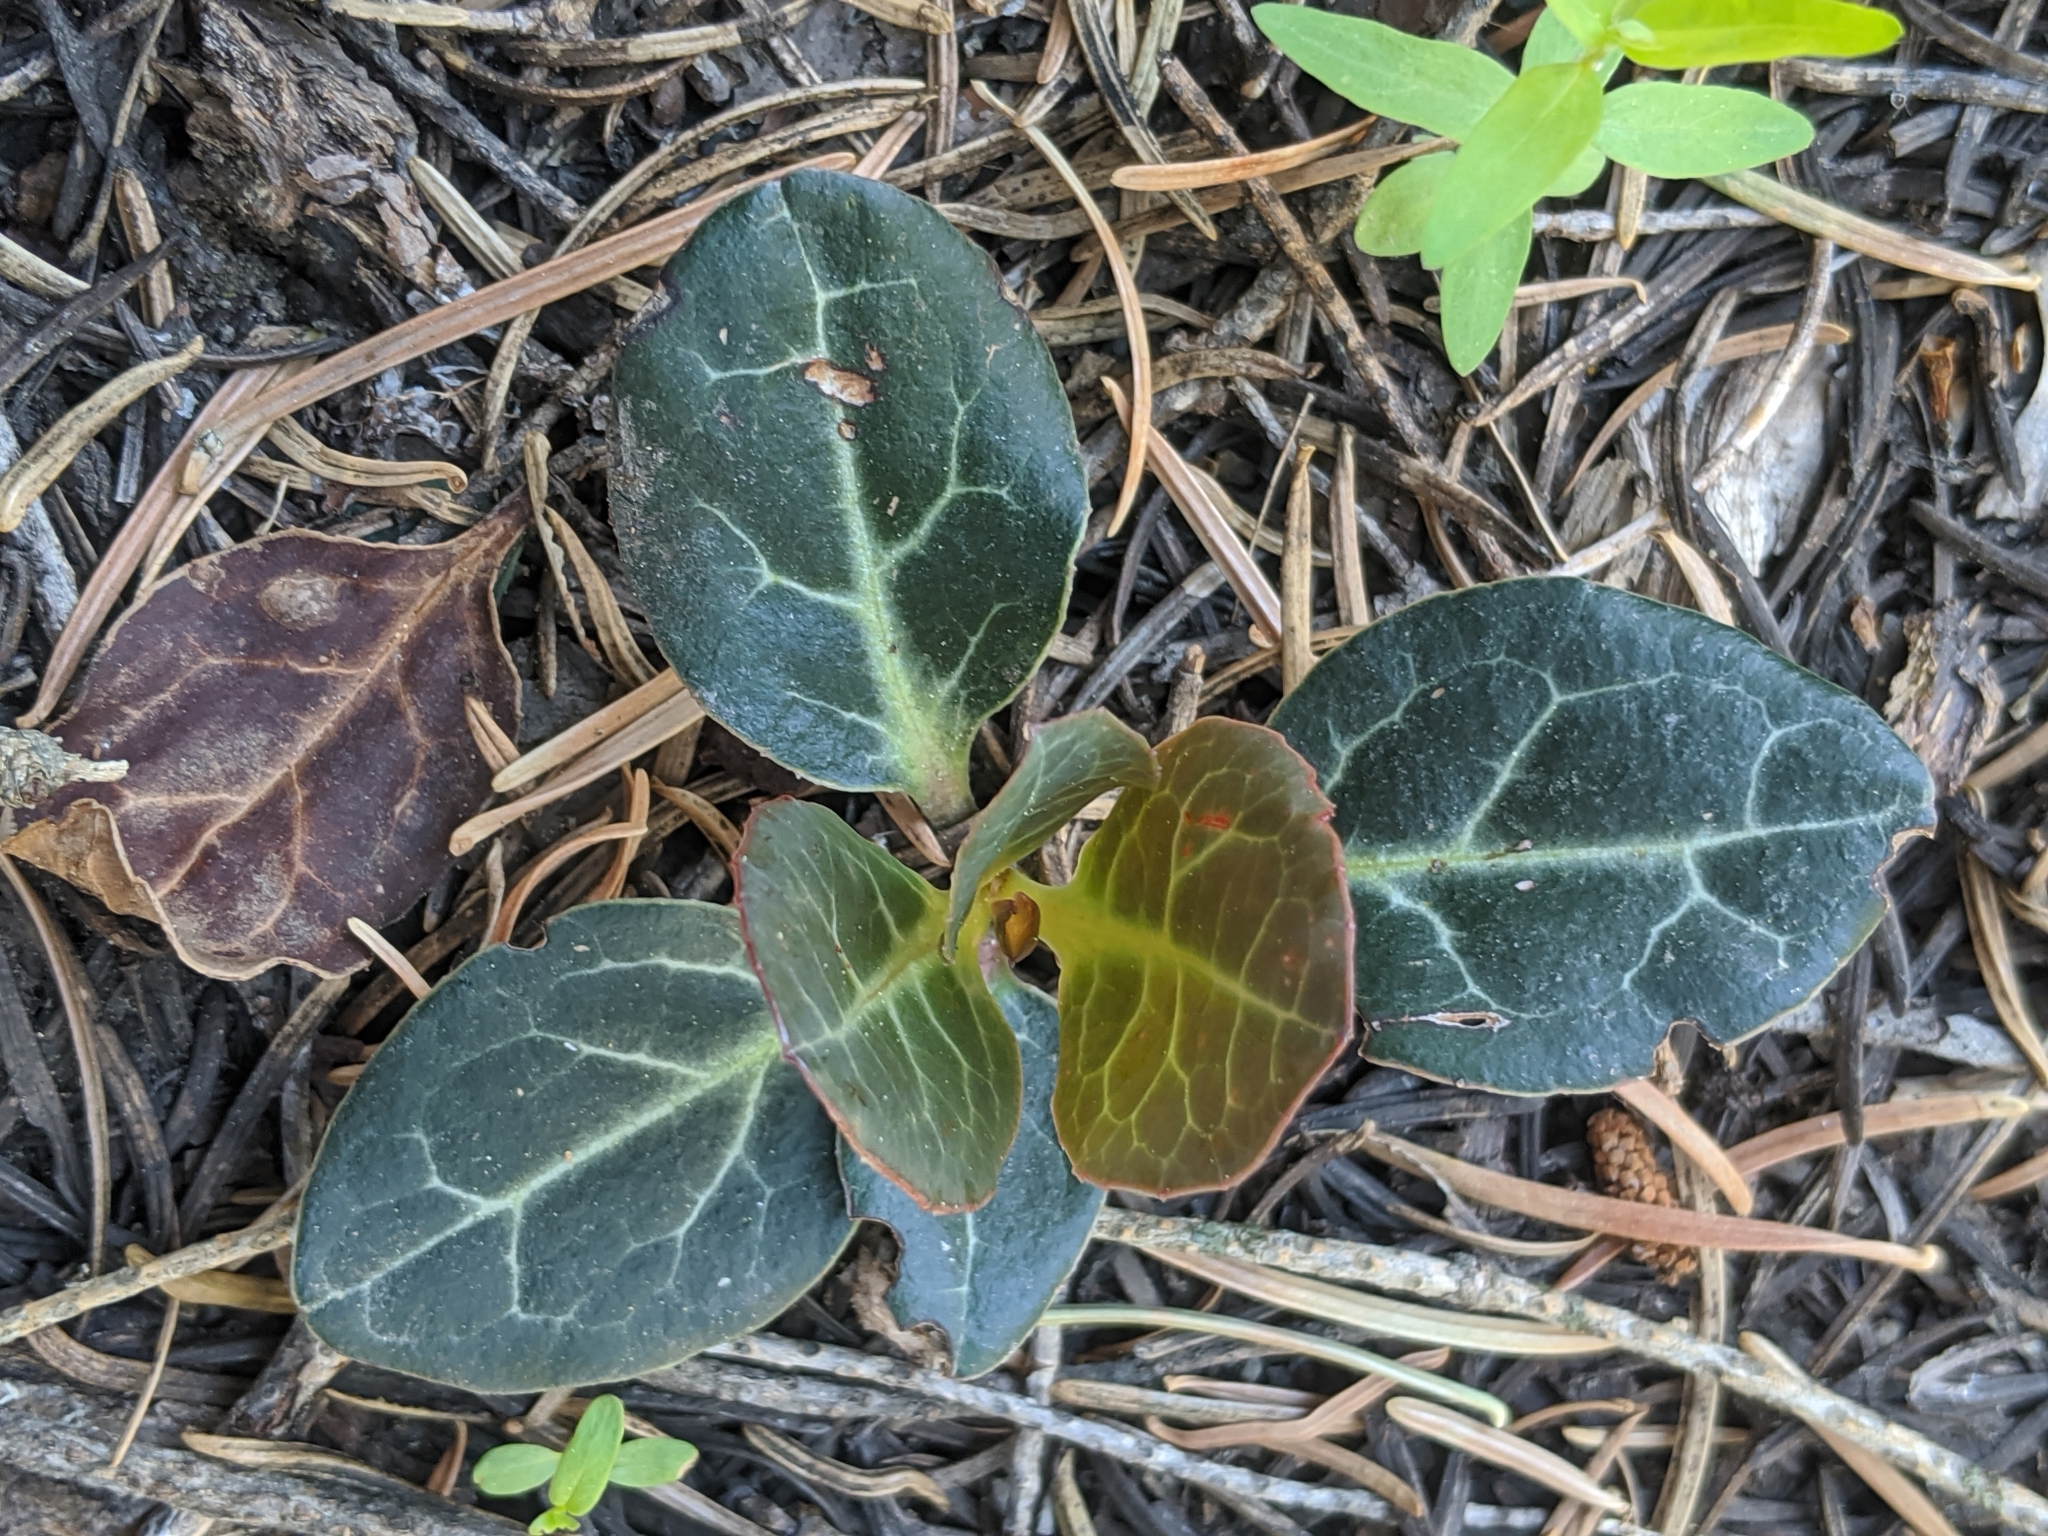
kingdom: Plantae
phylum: Tracheophyta
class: Magnoliopsida
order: Ericales
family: Ericaceae
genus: Pyrola
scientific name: Pyrola picta
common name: White-vein wintergreen
